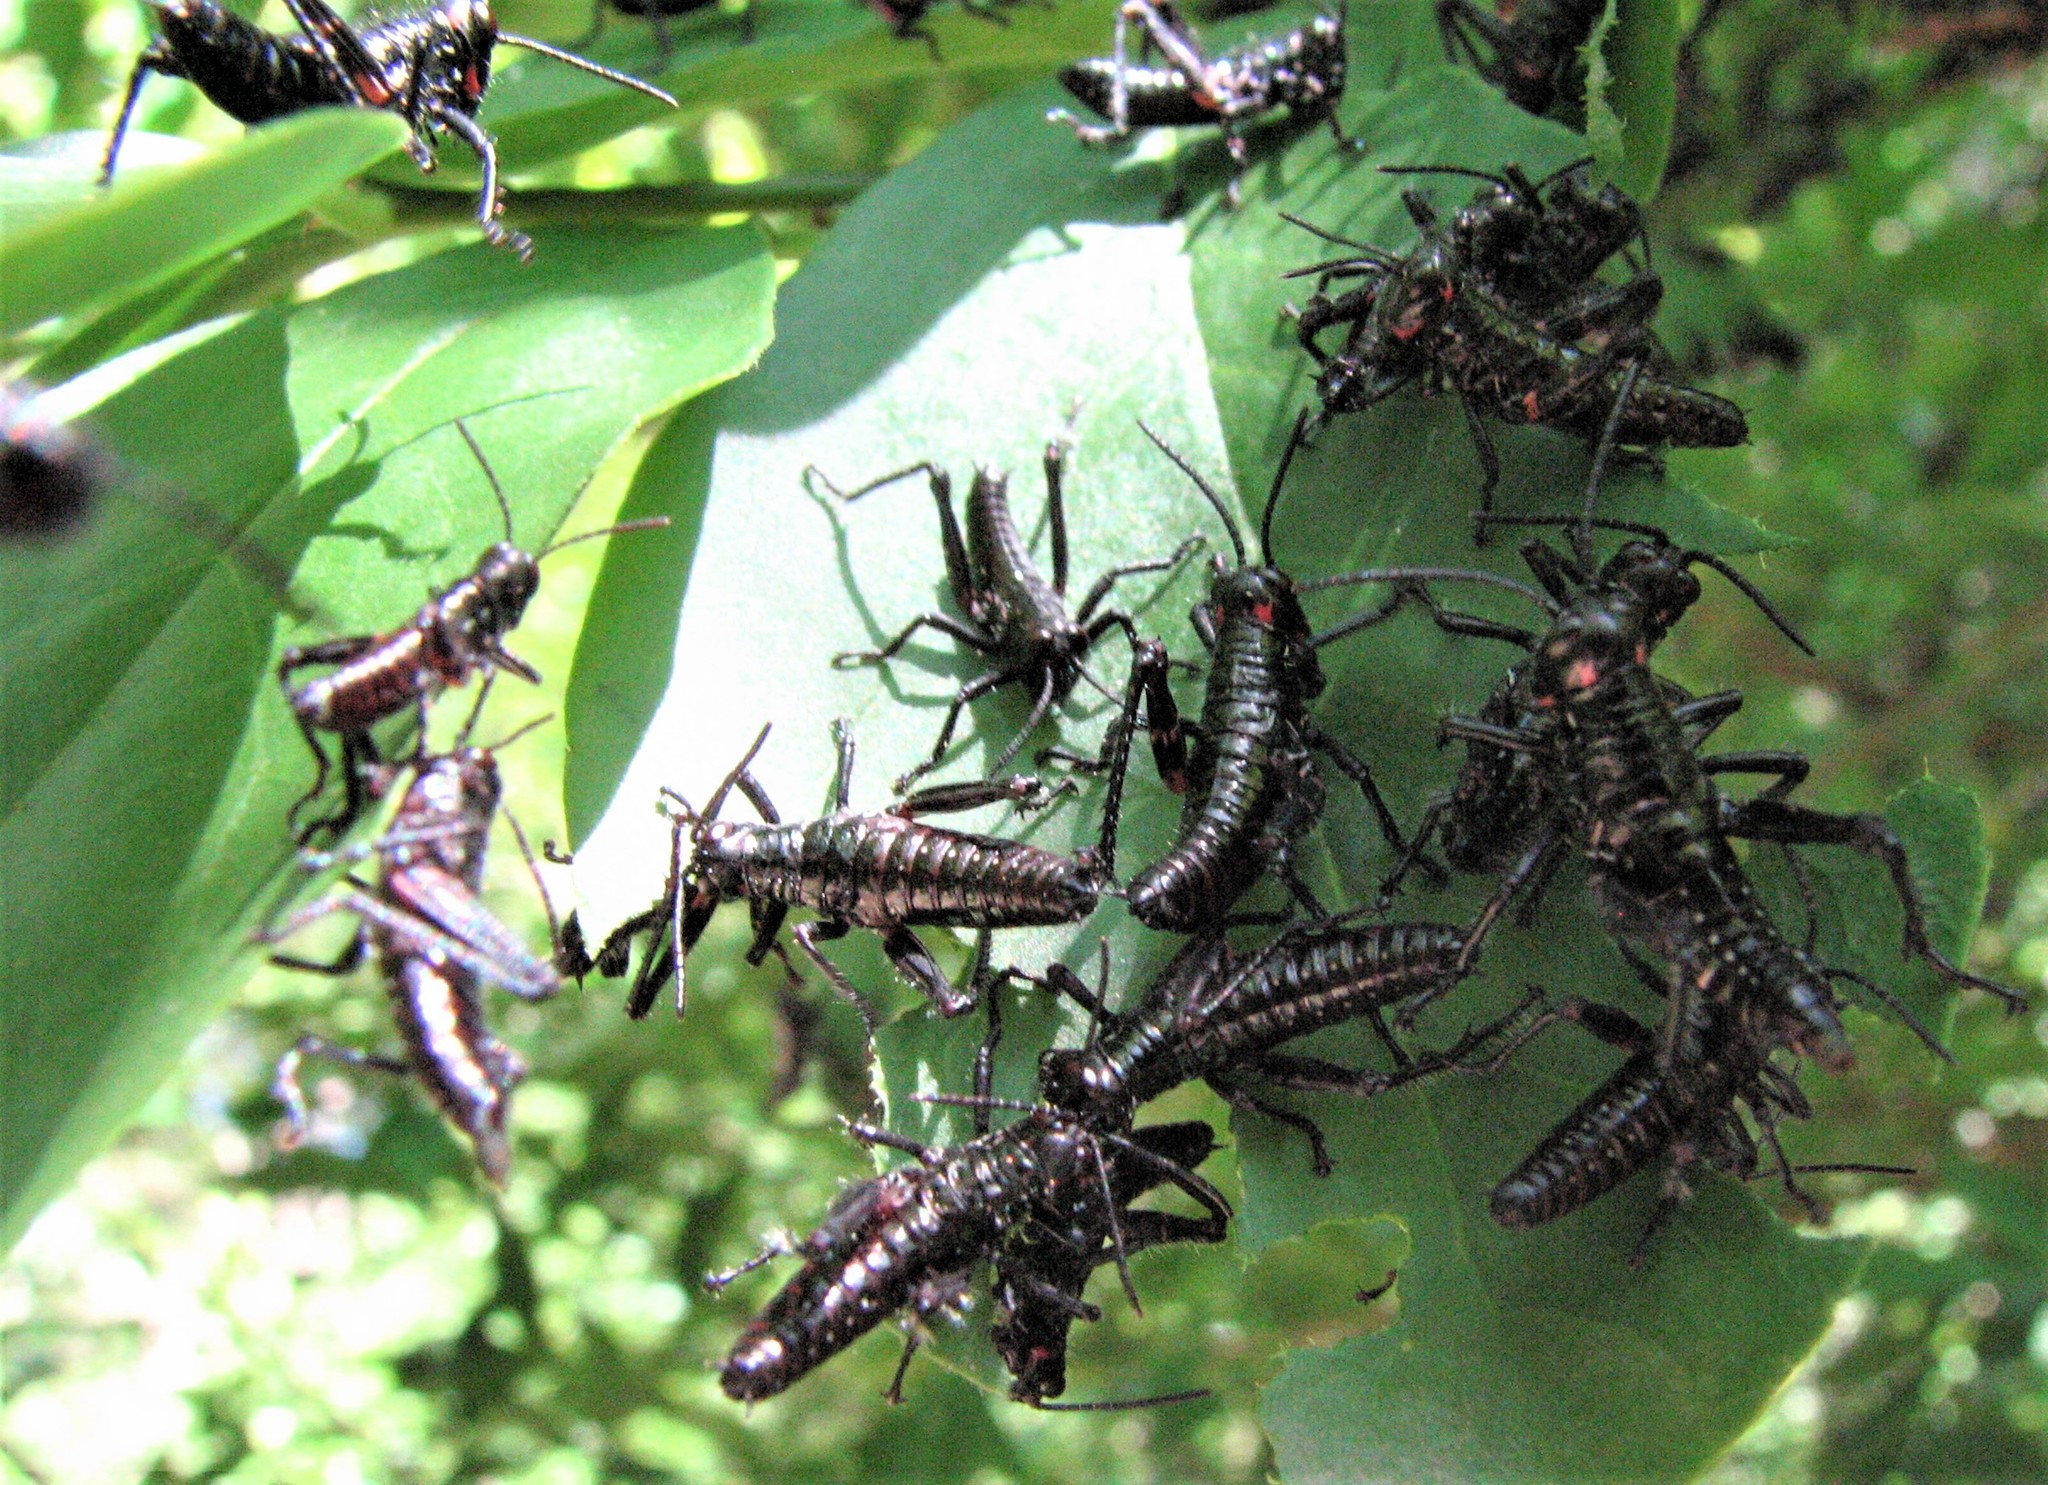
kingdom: Animalia
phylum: Arthropoda
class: Insecta
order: Orthoptera
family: Romaleidae
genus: Chromacris
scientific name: Chromacris speciosa
